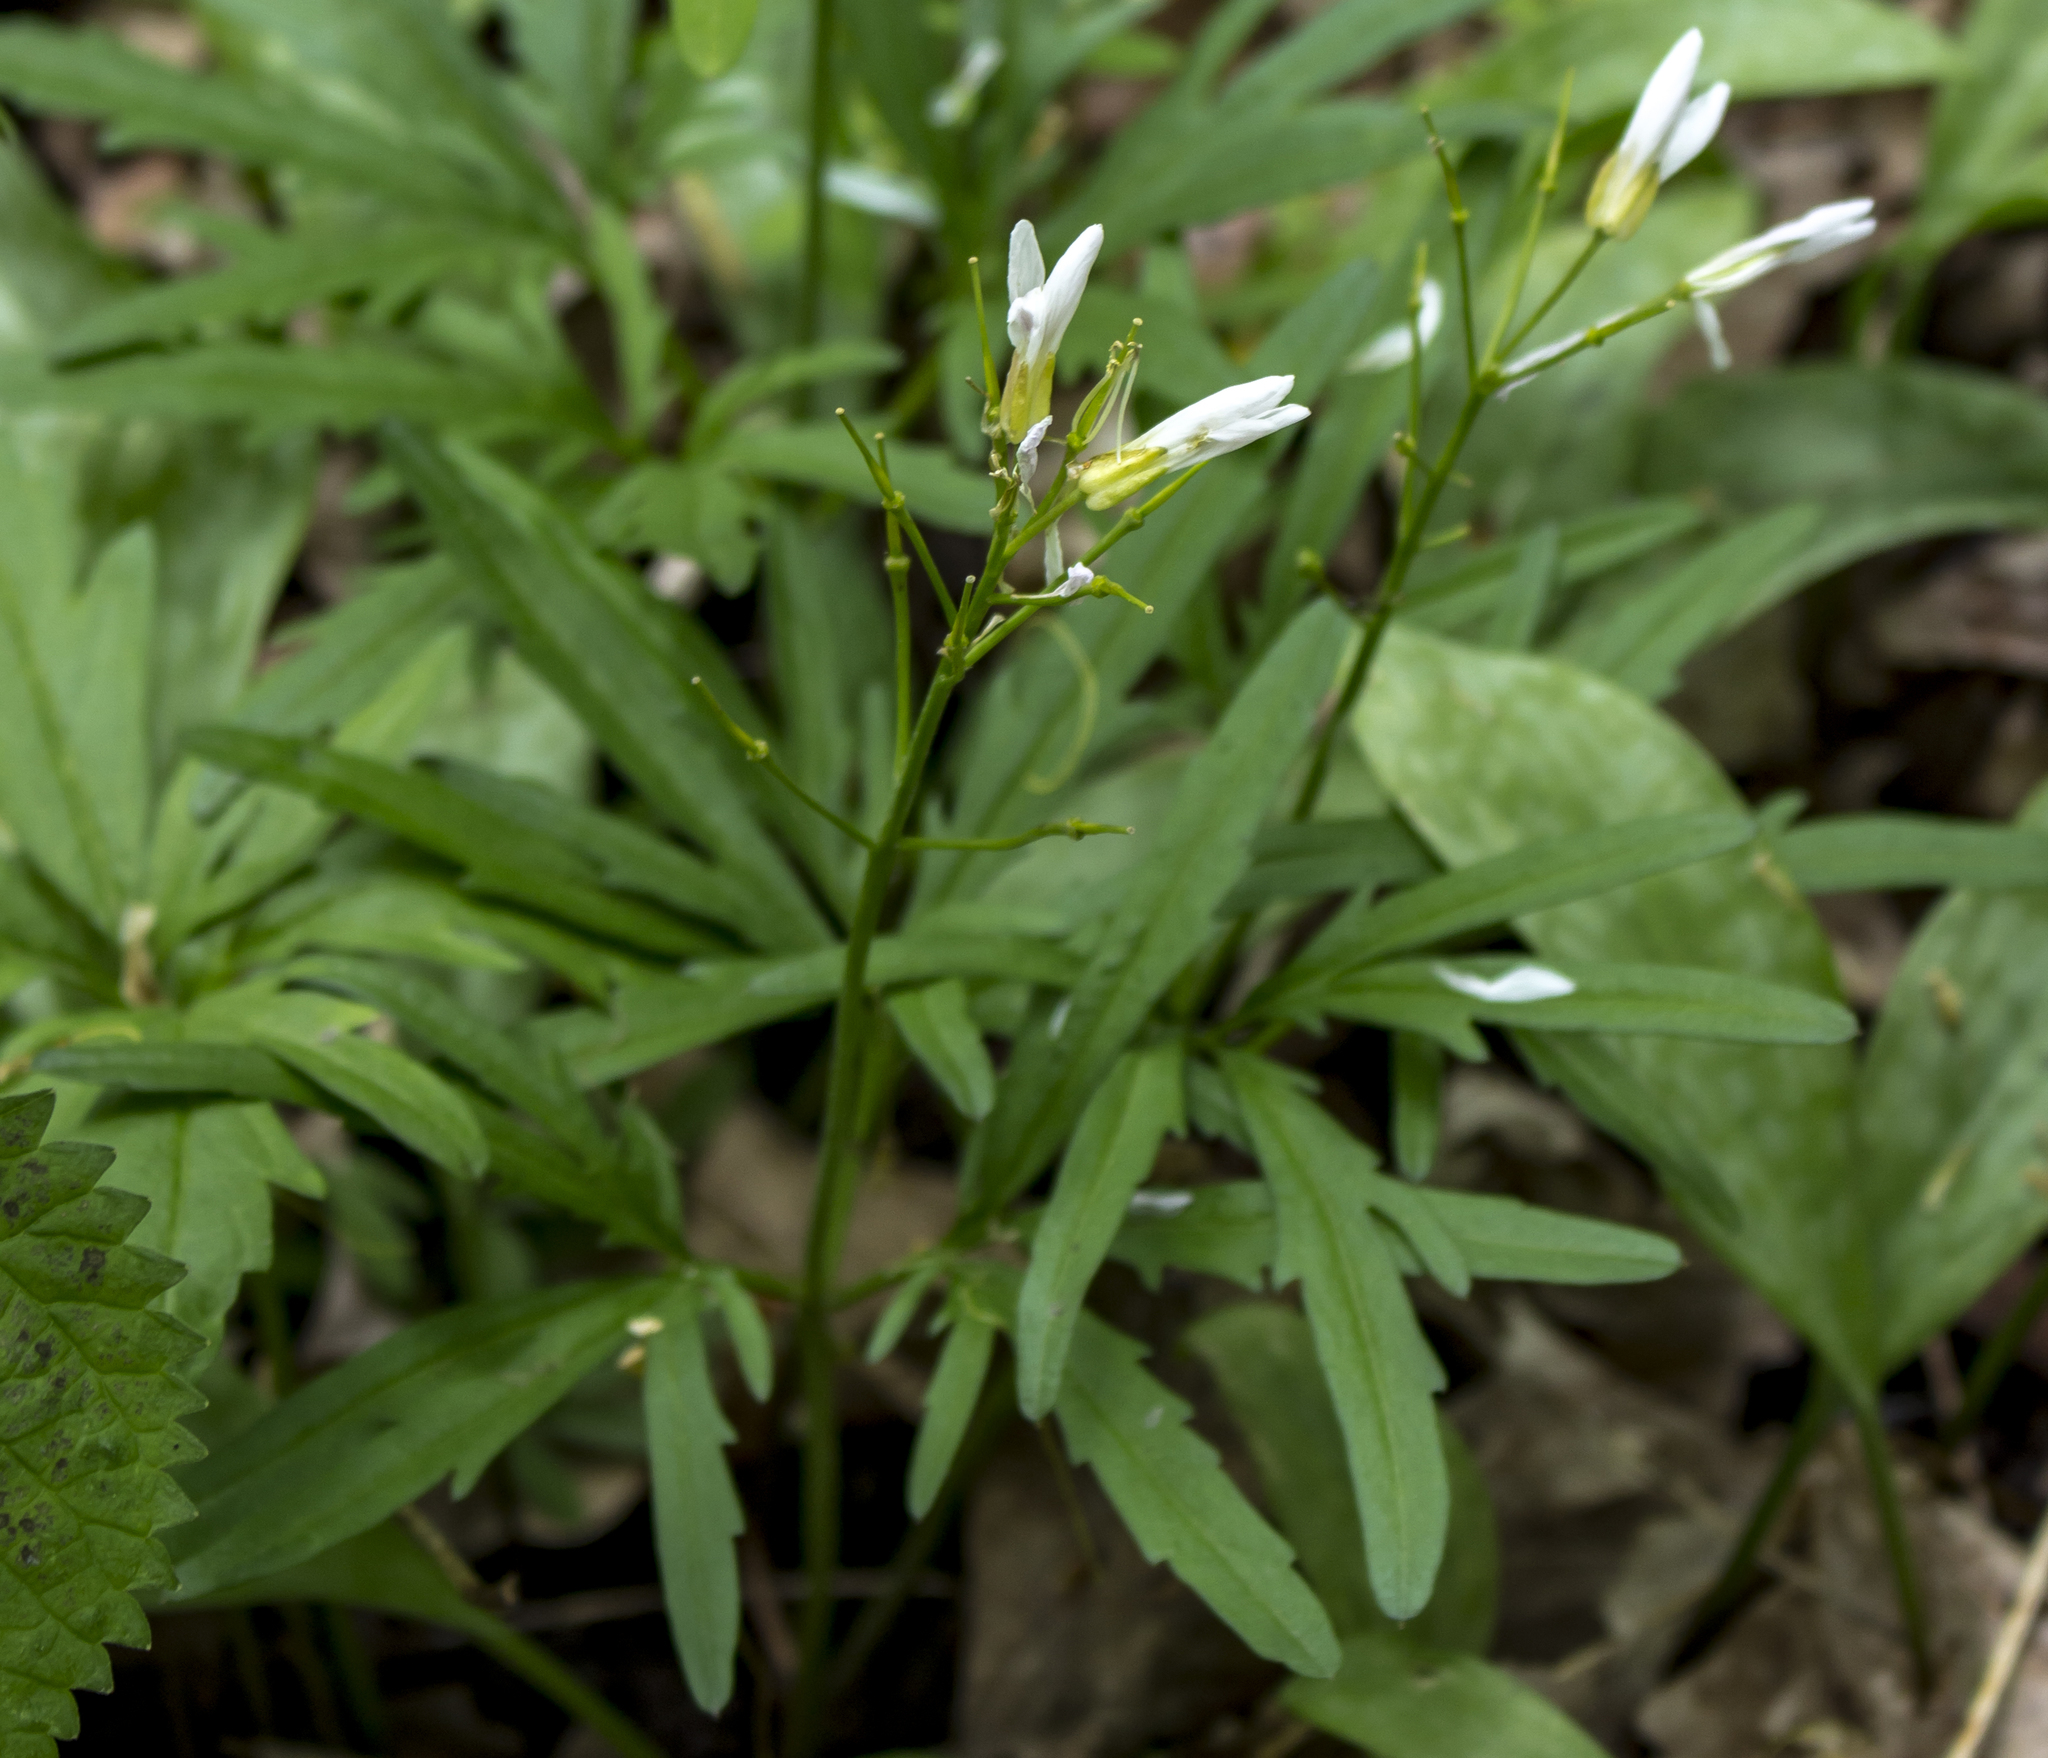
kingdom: Plantae
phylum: Tracheophyta
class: Magnoliopsida
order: Brassicales
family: Brassicaceae
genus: Cardamine
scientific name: Cardamine concatenata
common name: Cut-leaf toothcup
